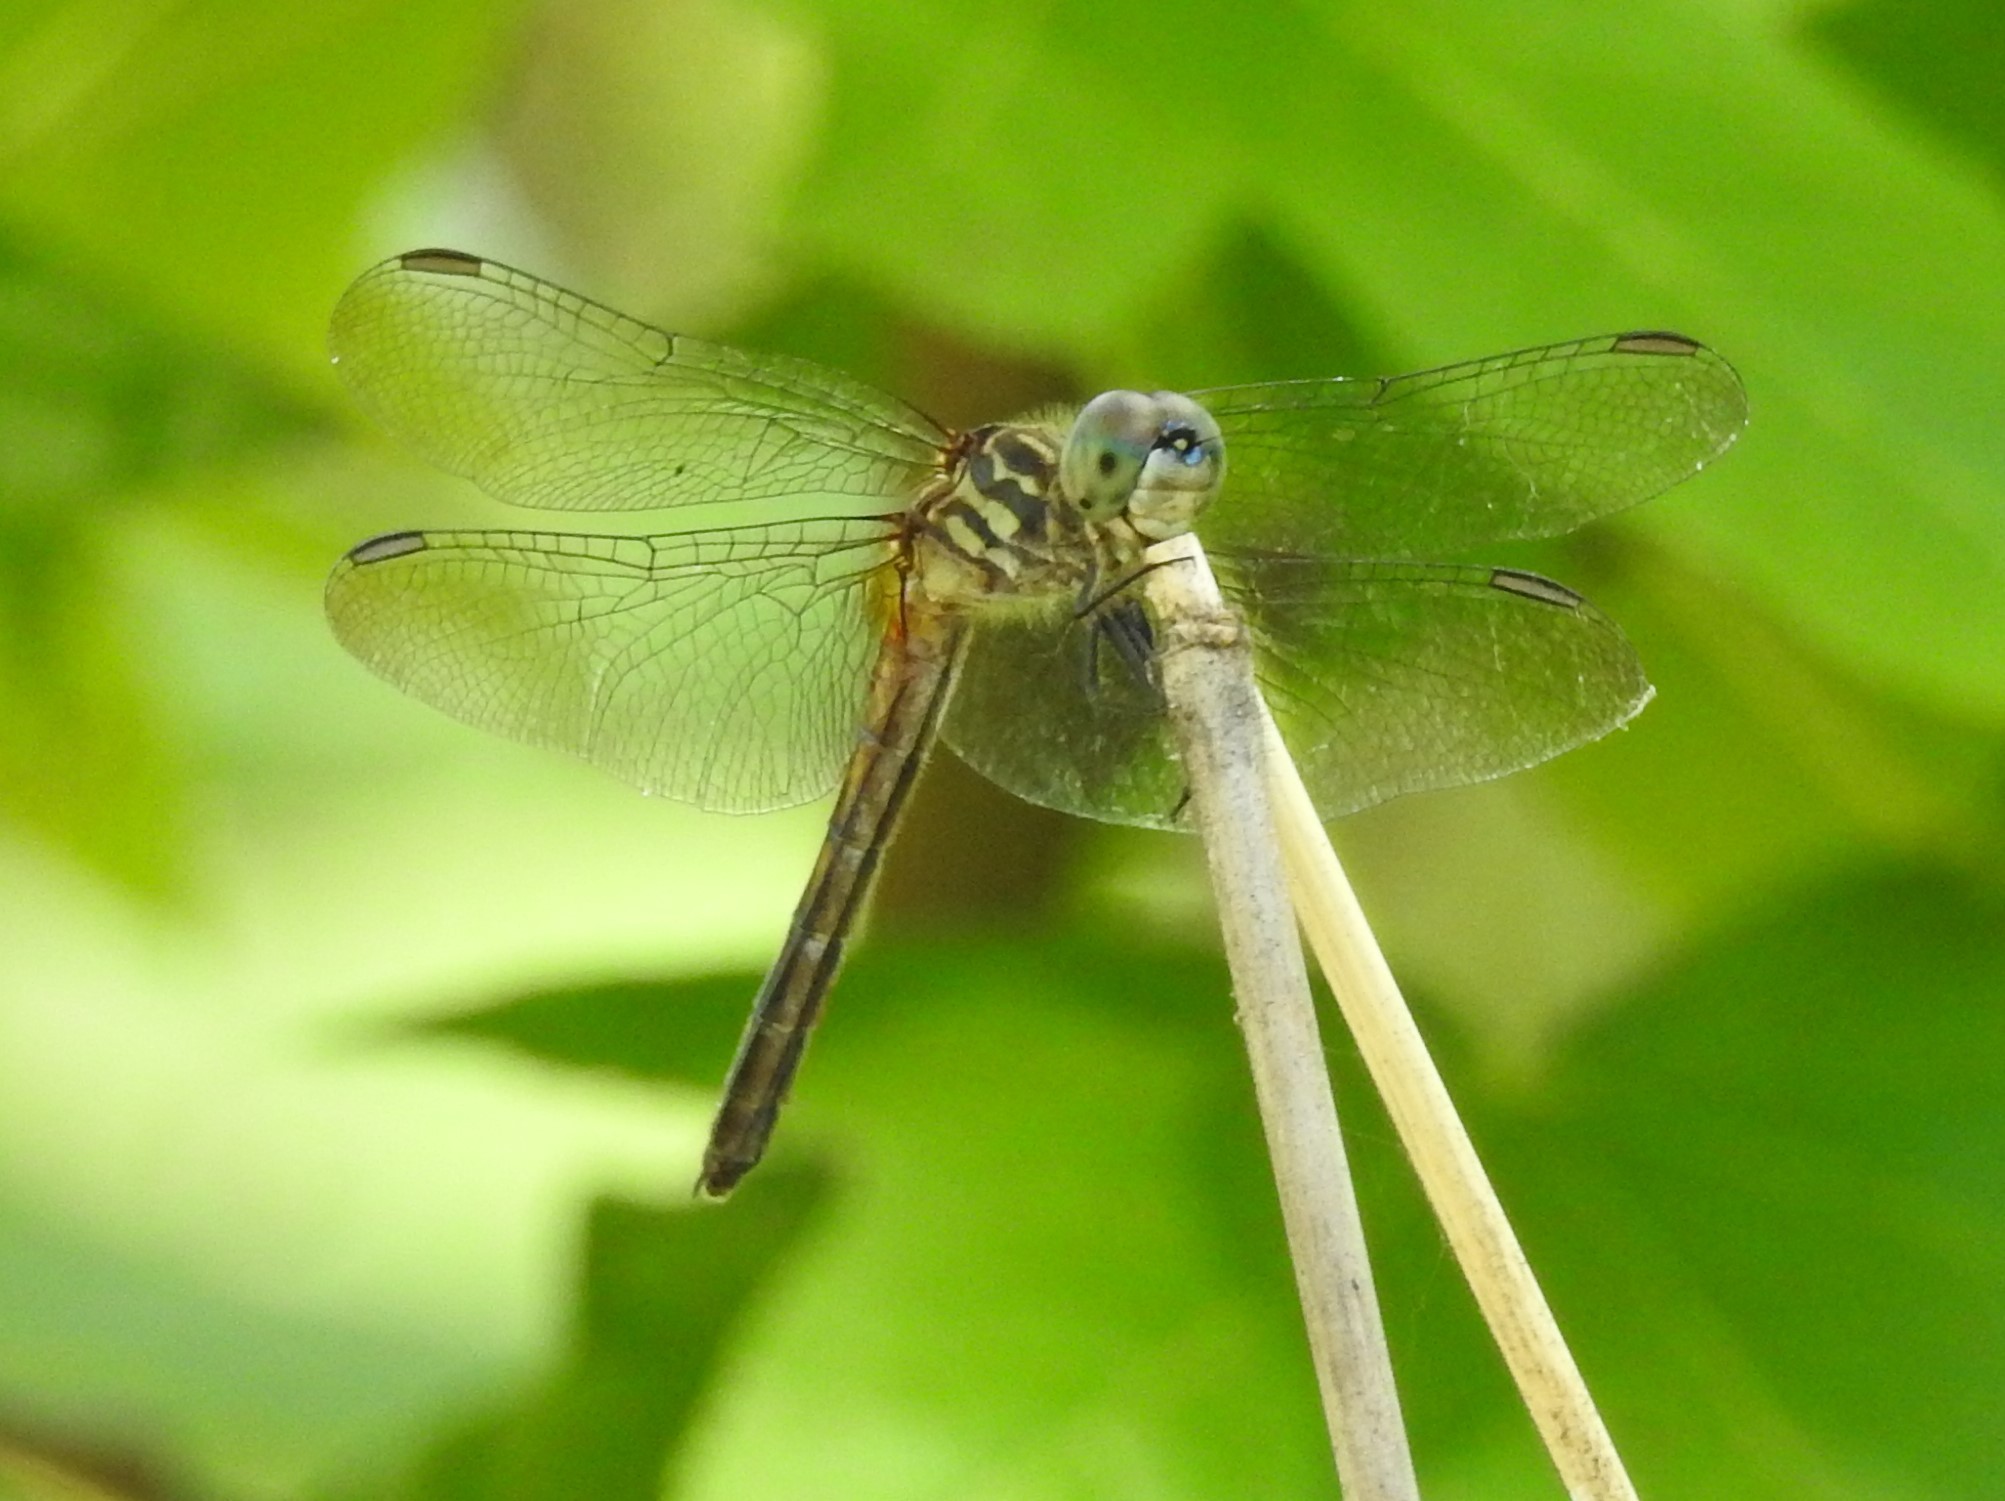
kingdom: Animalia
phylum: Arthropoda
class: Insecta
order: Odonata
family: Libellulidae
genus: Pachydiplax
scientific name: Pachydiplax longipennis
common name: Blue dasher
